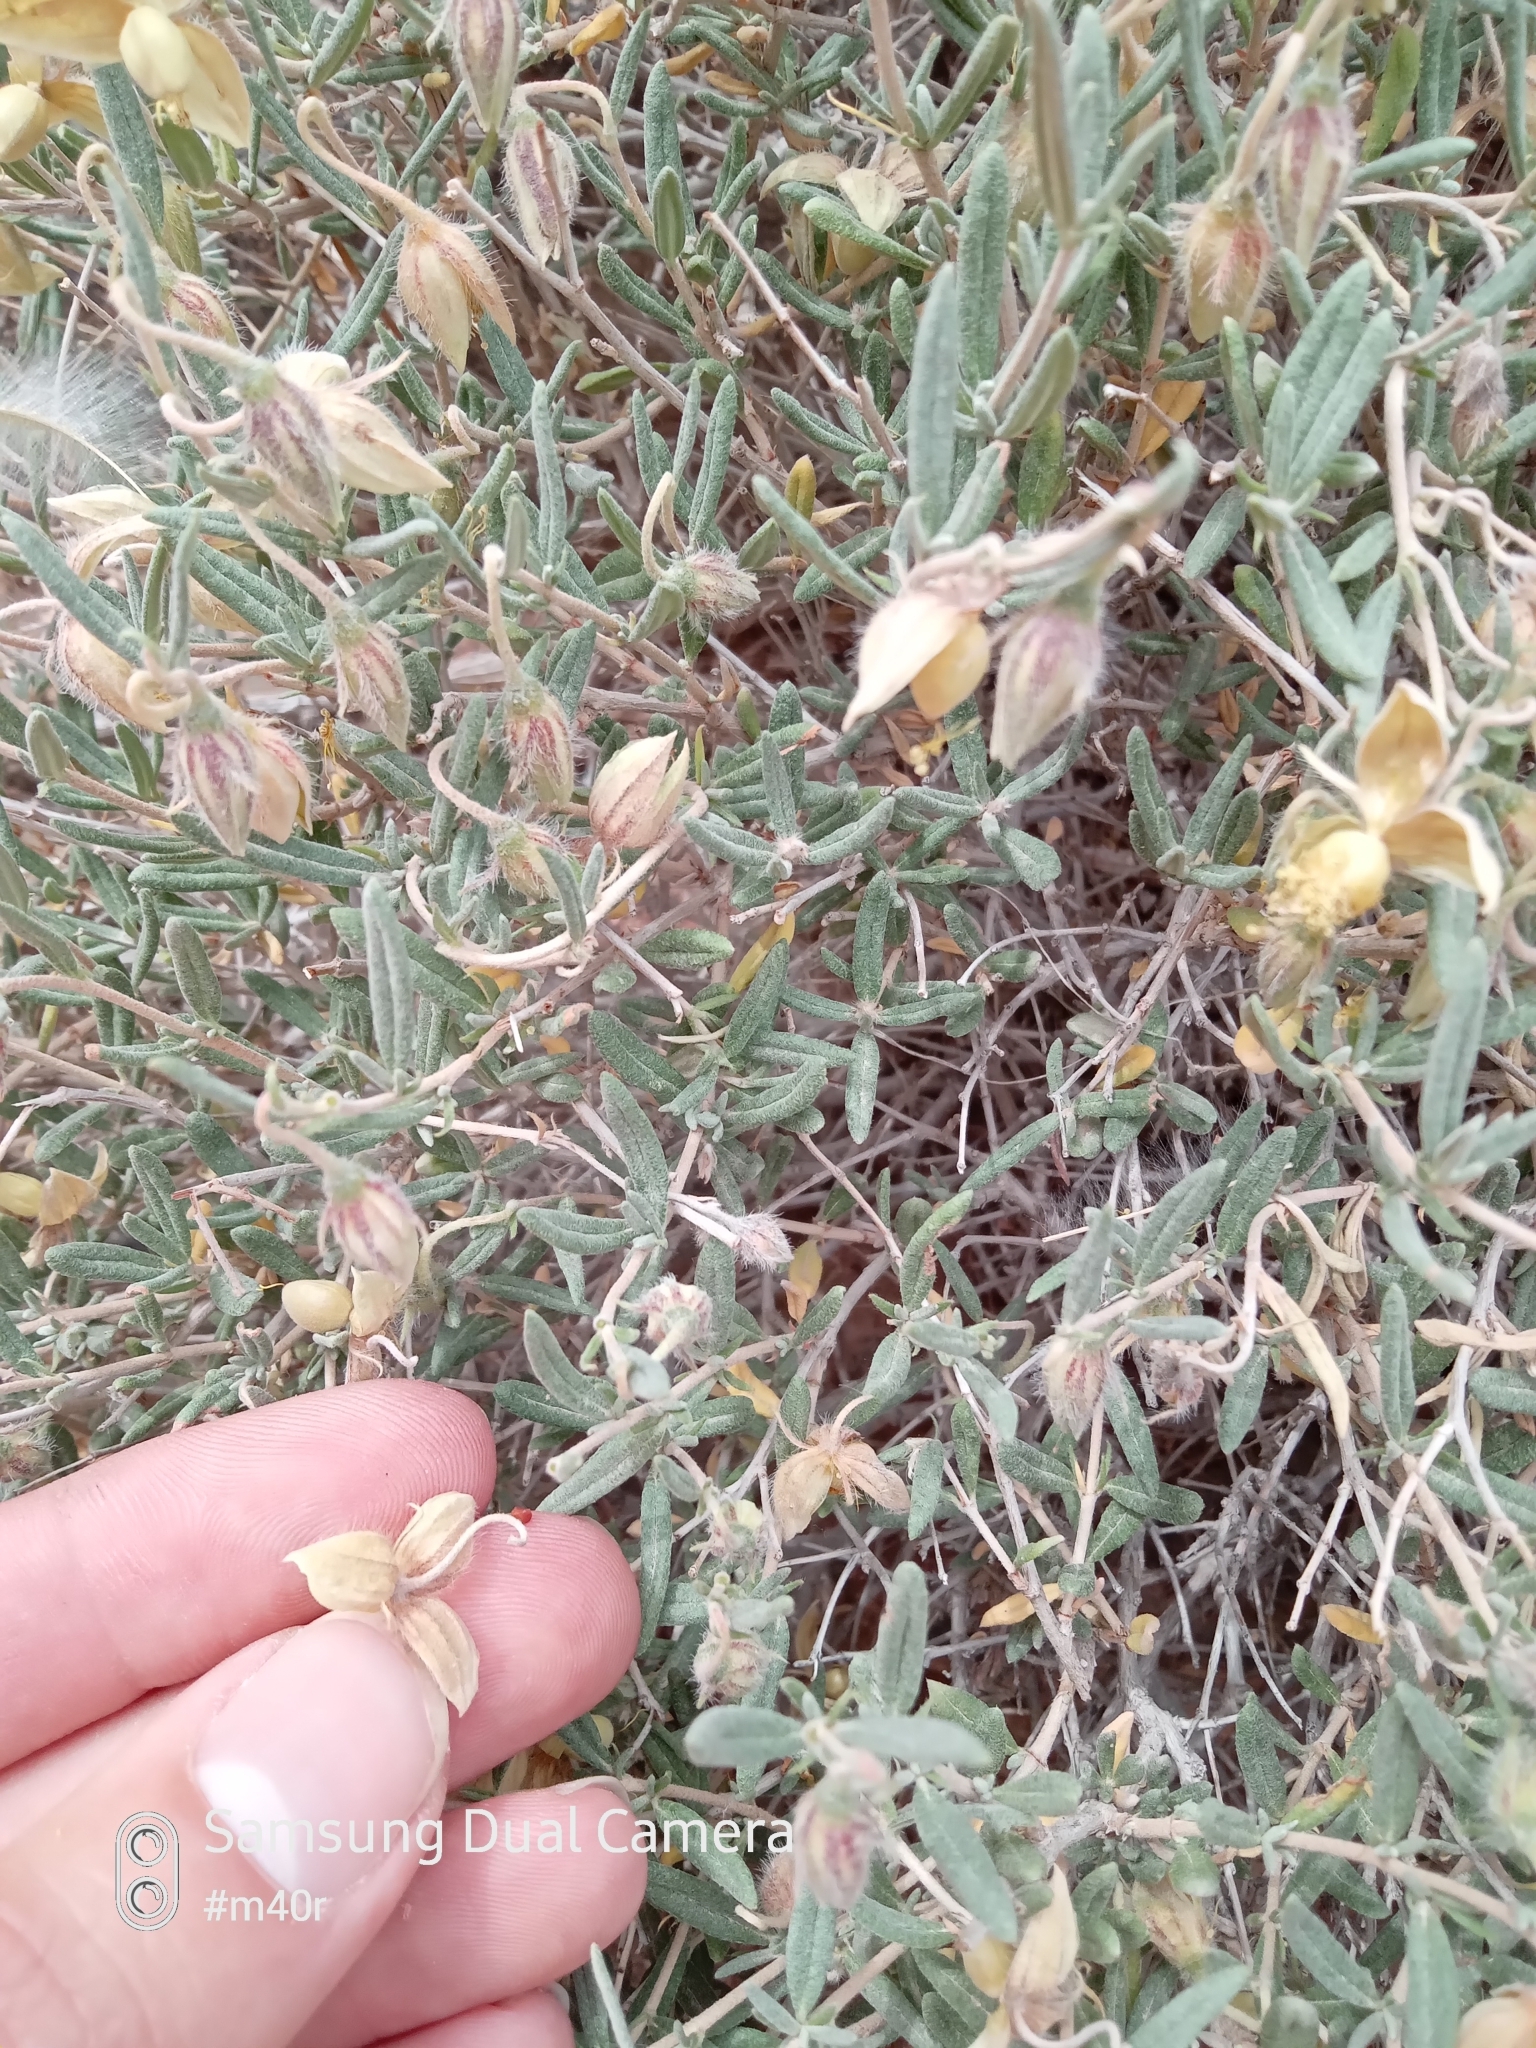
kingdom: Plantae
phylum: Tracheophyta
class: Magnoliopsida
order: Malvales
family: Cistaceae
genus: Helianthemum
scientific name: Helianthemum songaricum
